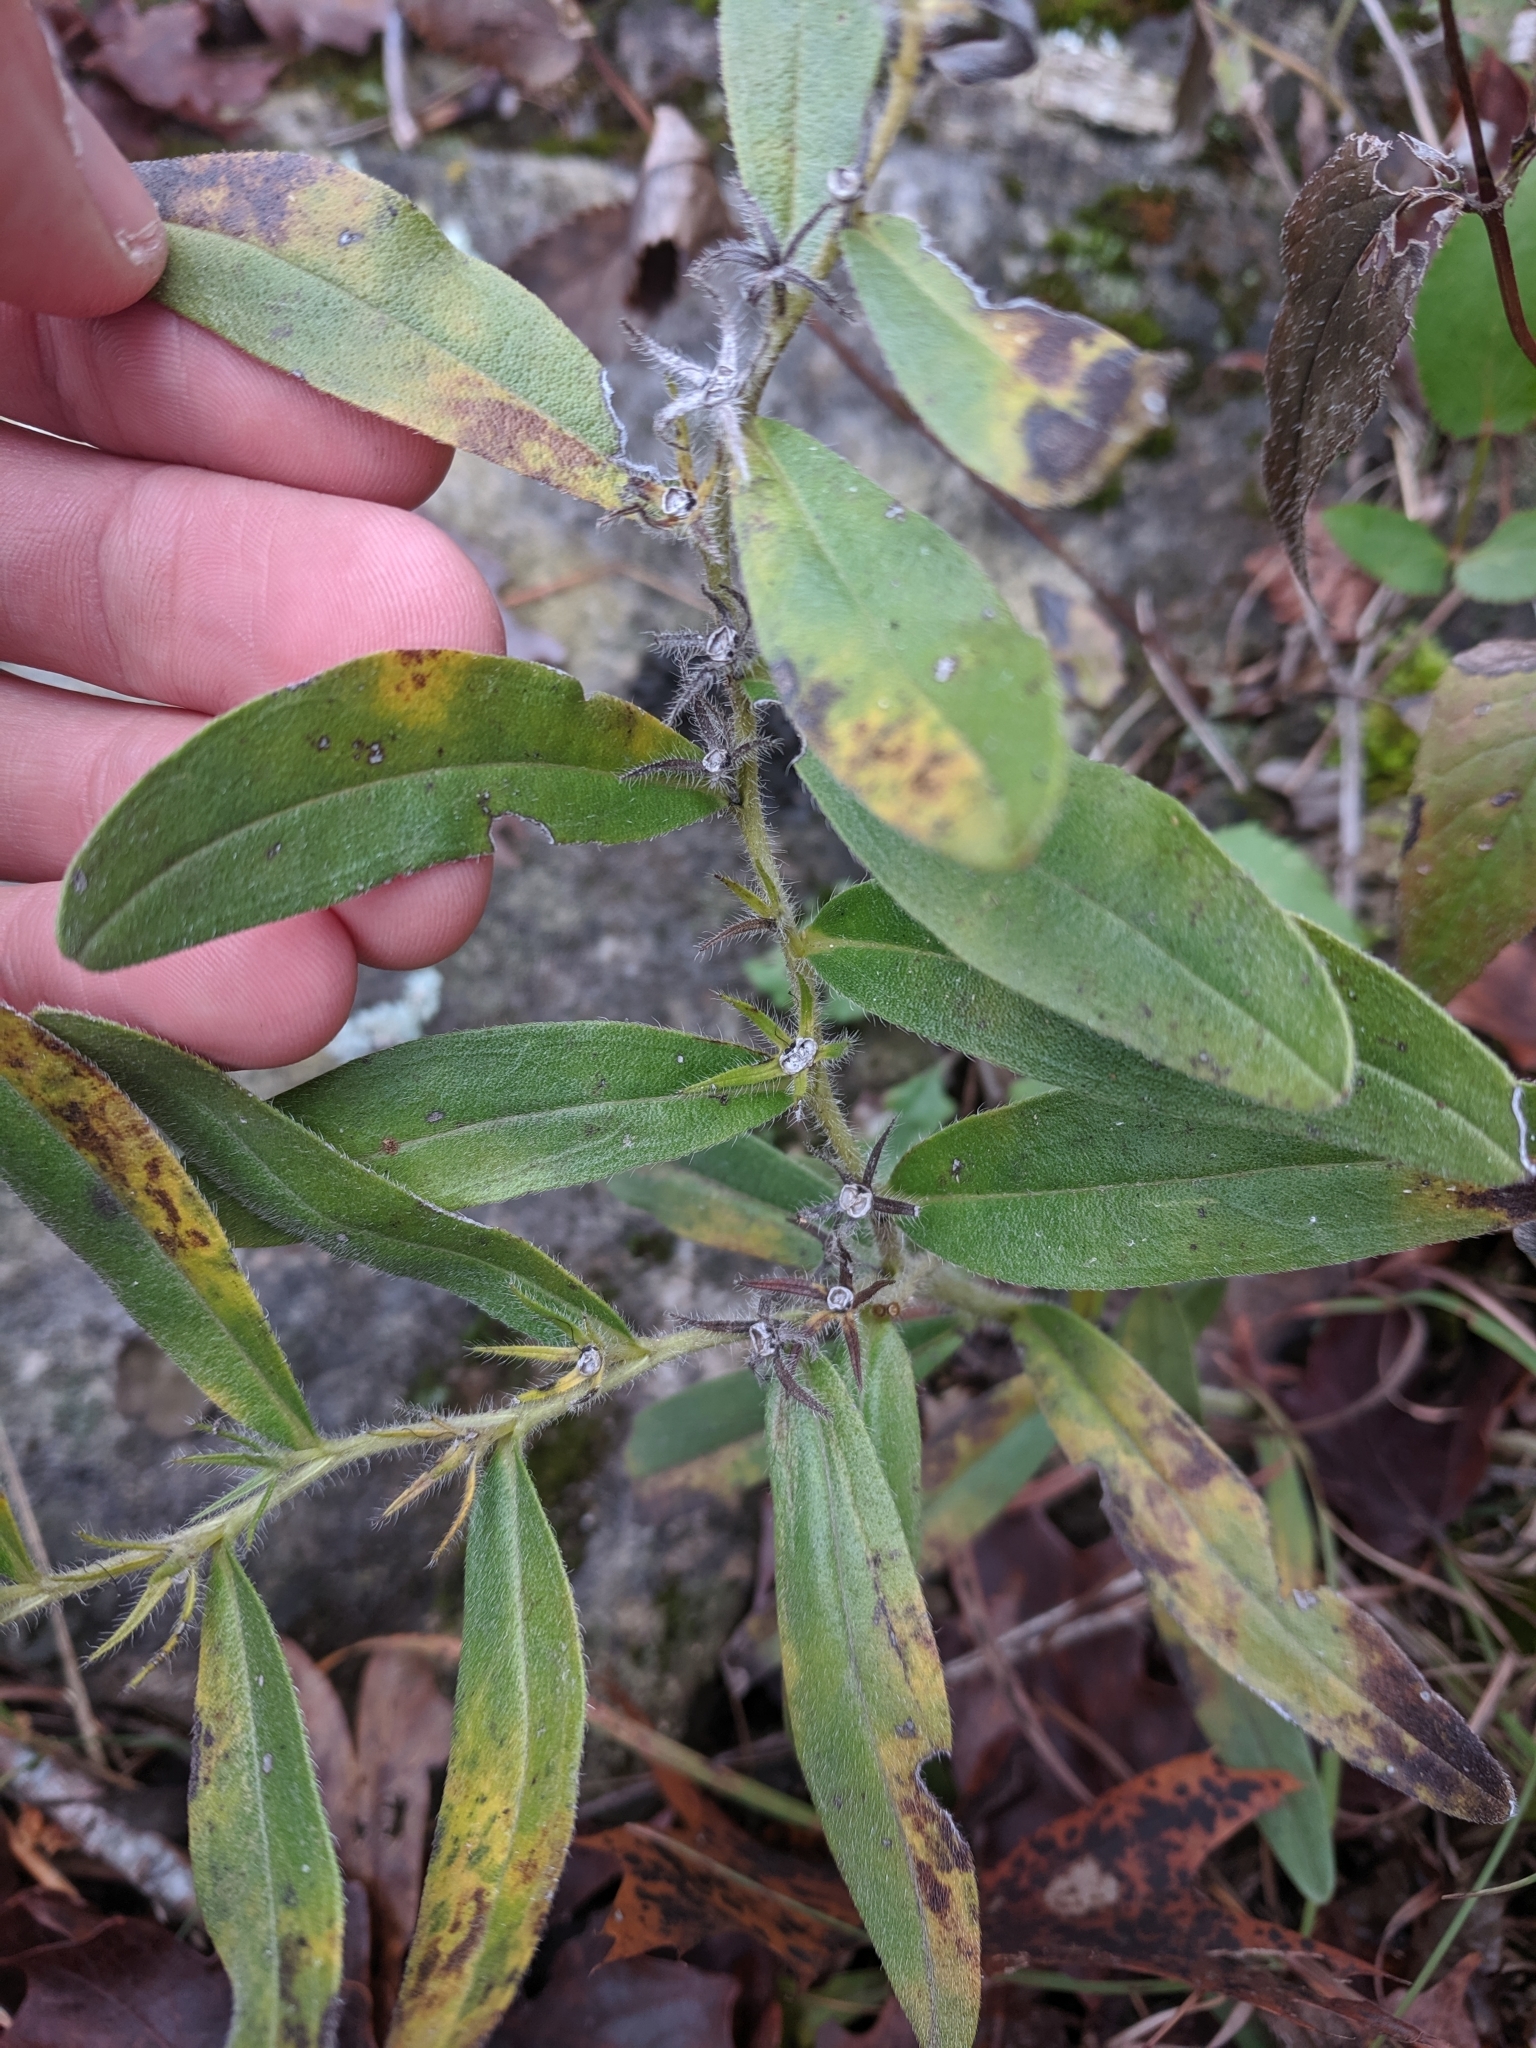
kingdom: Plantae
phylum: Tracheophyta
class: Magnoliopsida
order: Boraginales
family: Boraginaceae
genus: Lithospermum
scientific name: Lithospermum canescens
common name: Hoary puccoon
